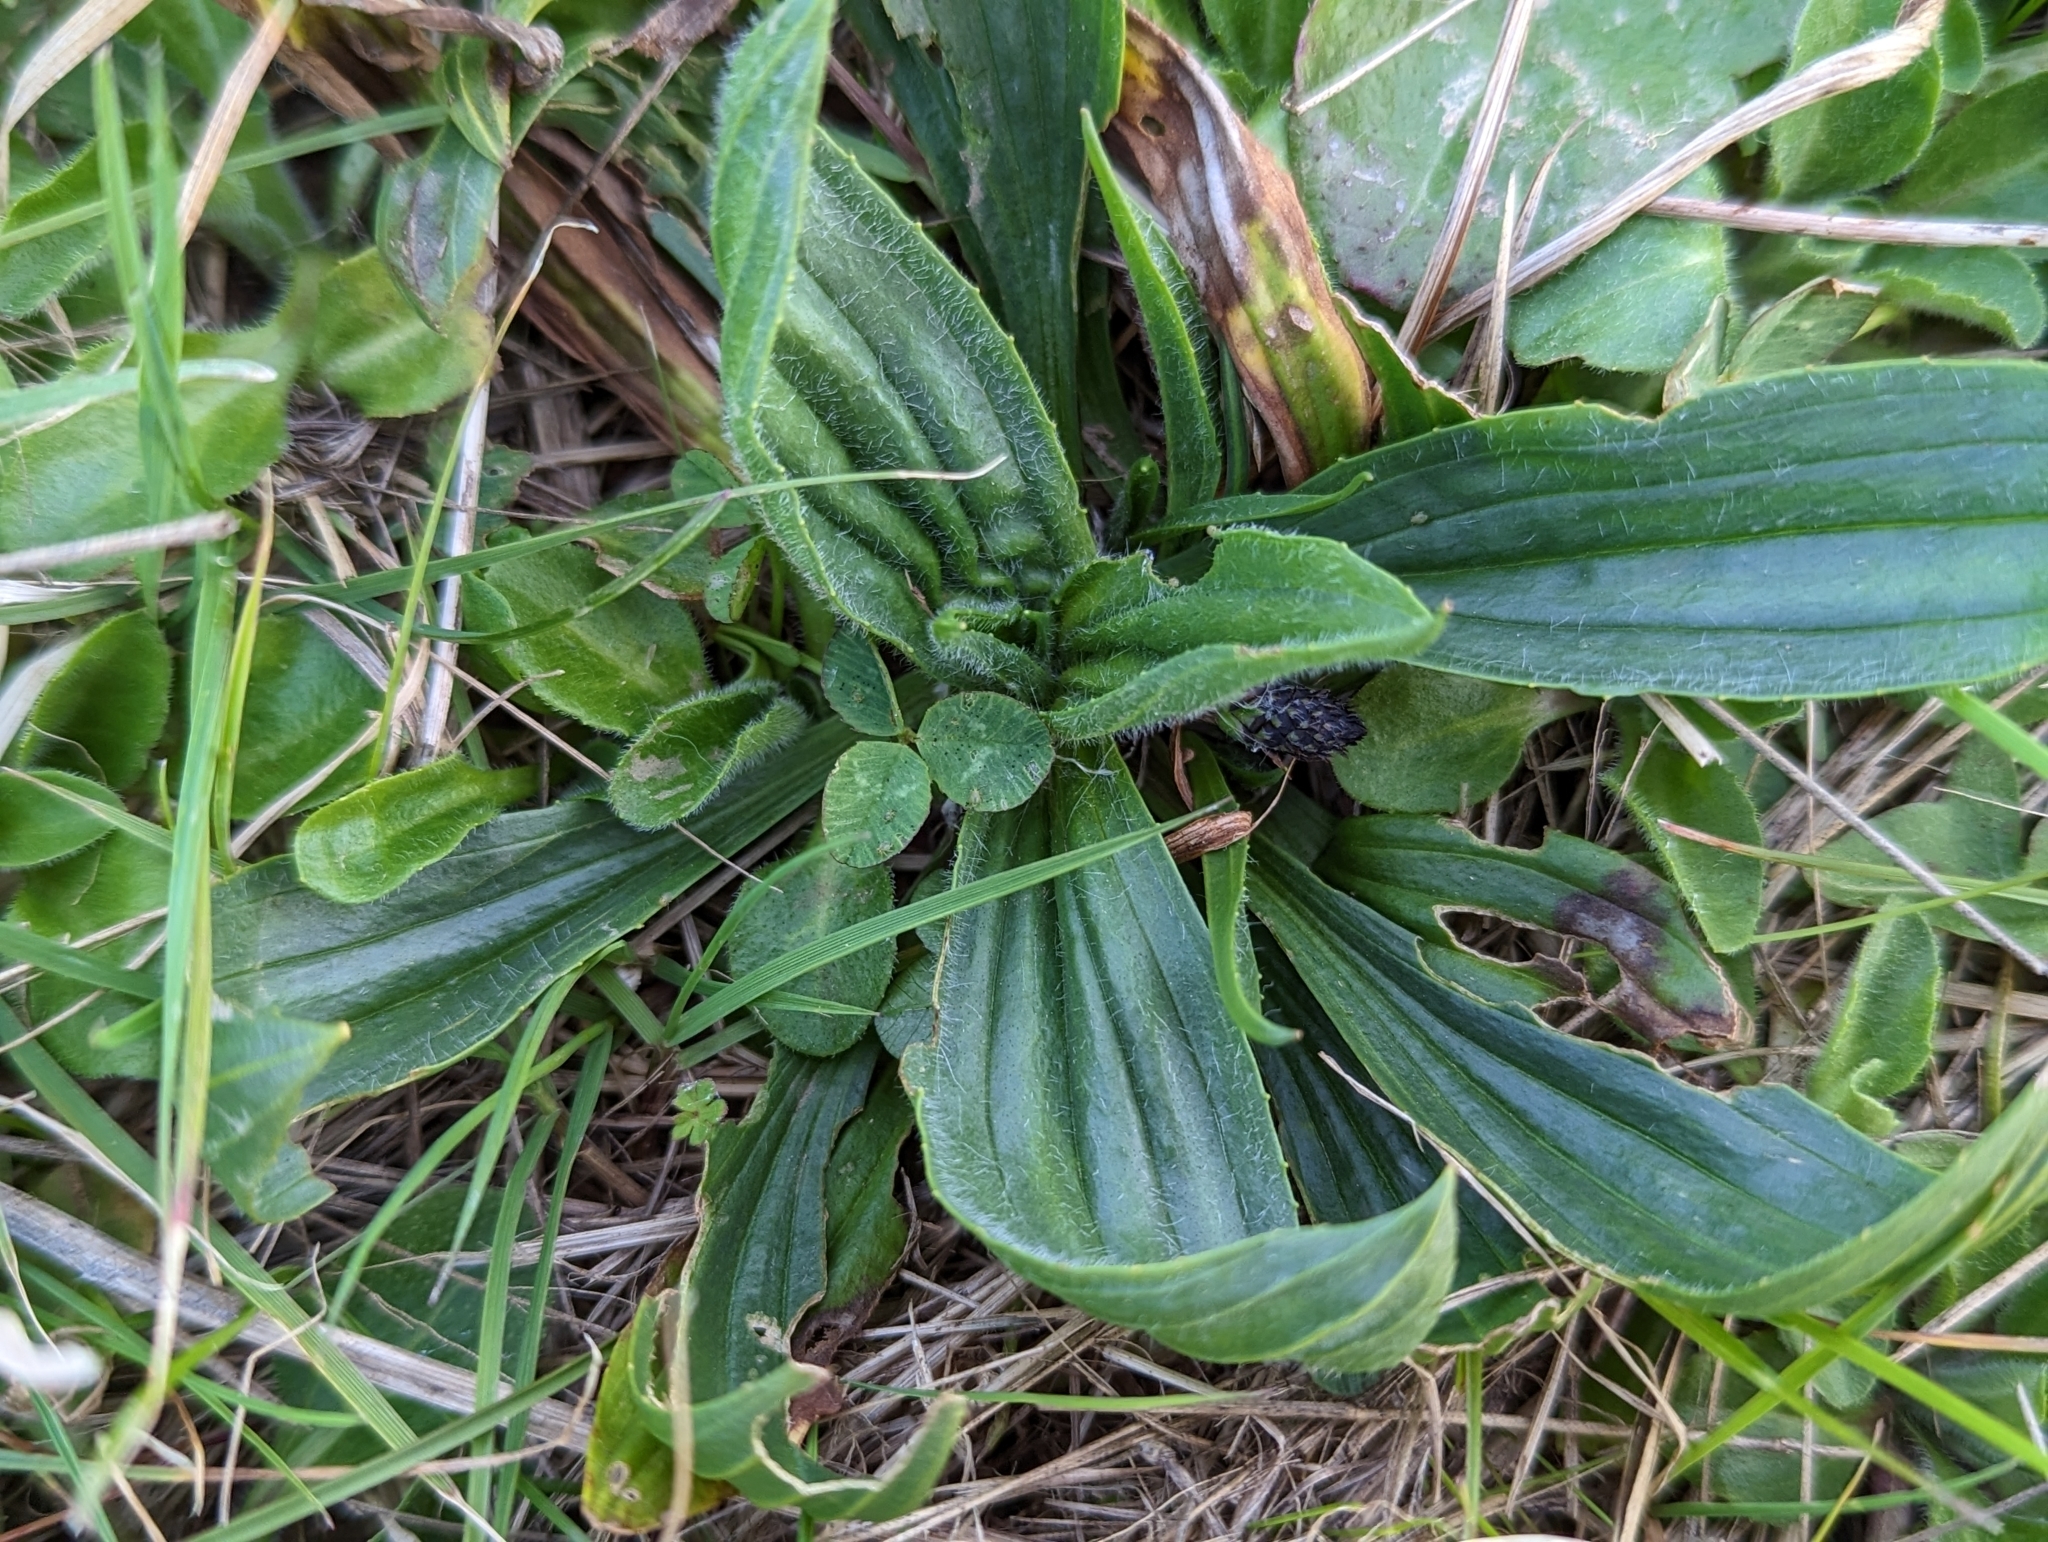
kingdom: Plantae
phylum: Tracheophyta
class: Magnoliopsida
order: Lamiales
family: Plantaginaceae
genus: Plantago
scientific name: Plantago lanceolata
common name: Ribwort plantain
